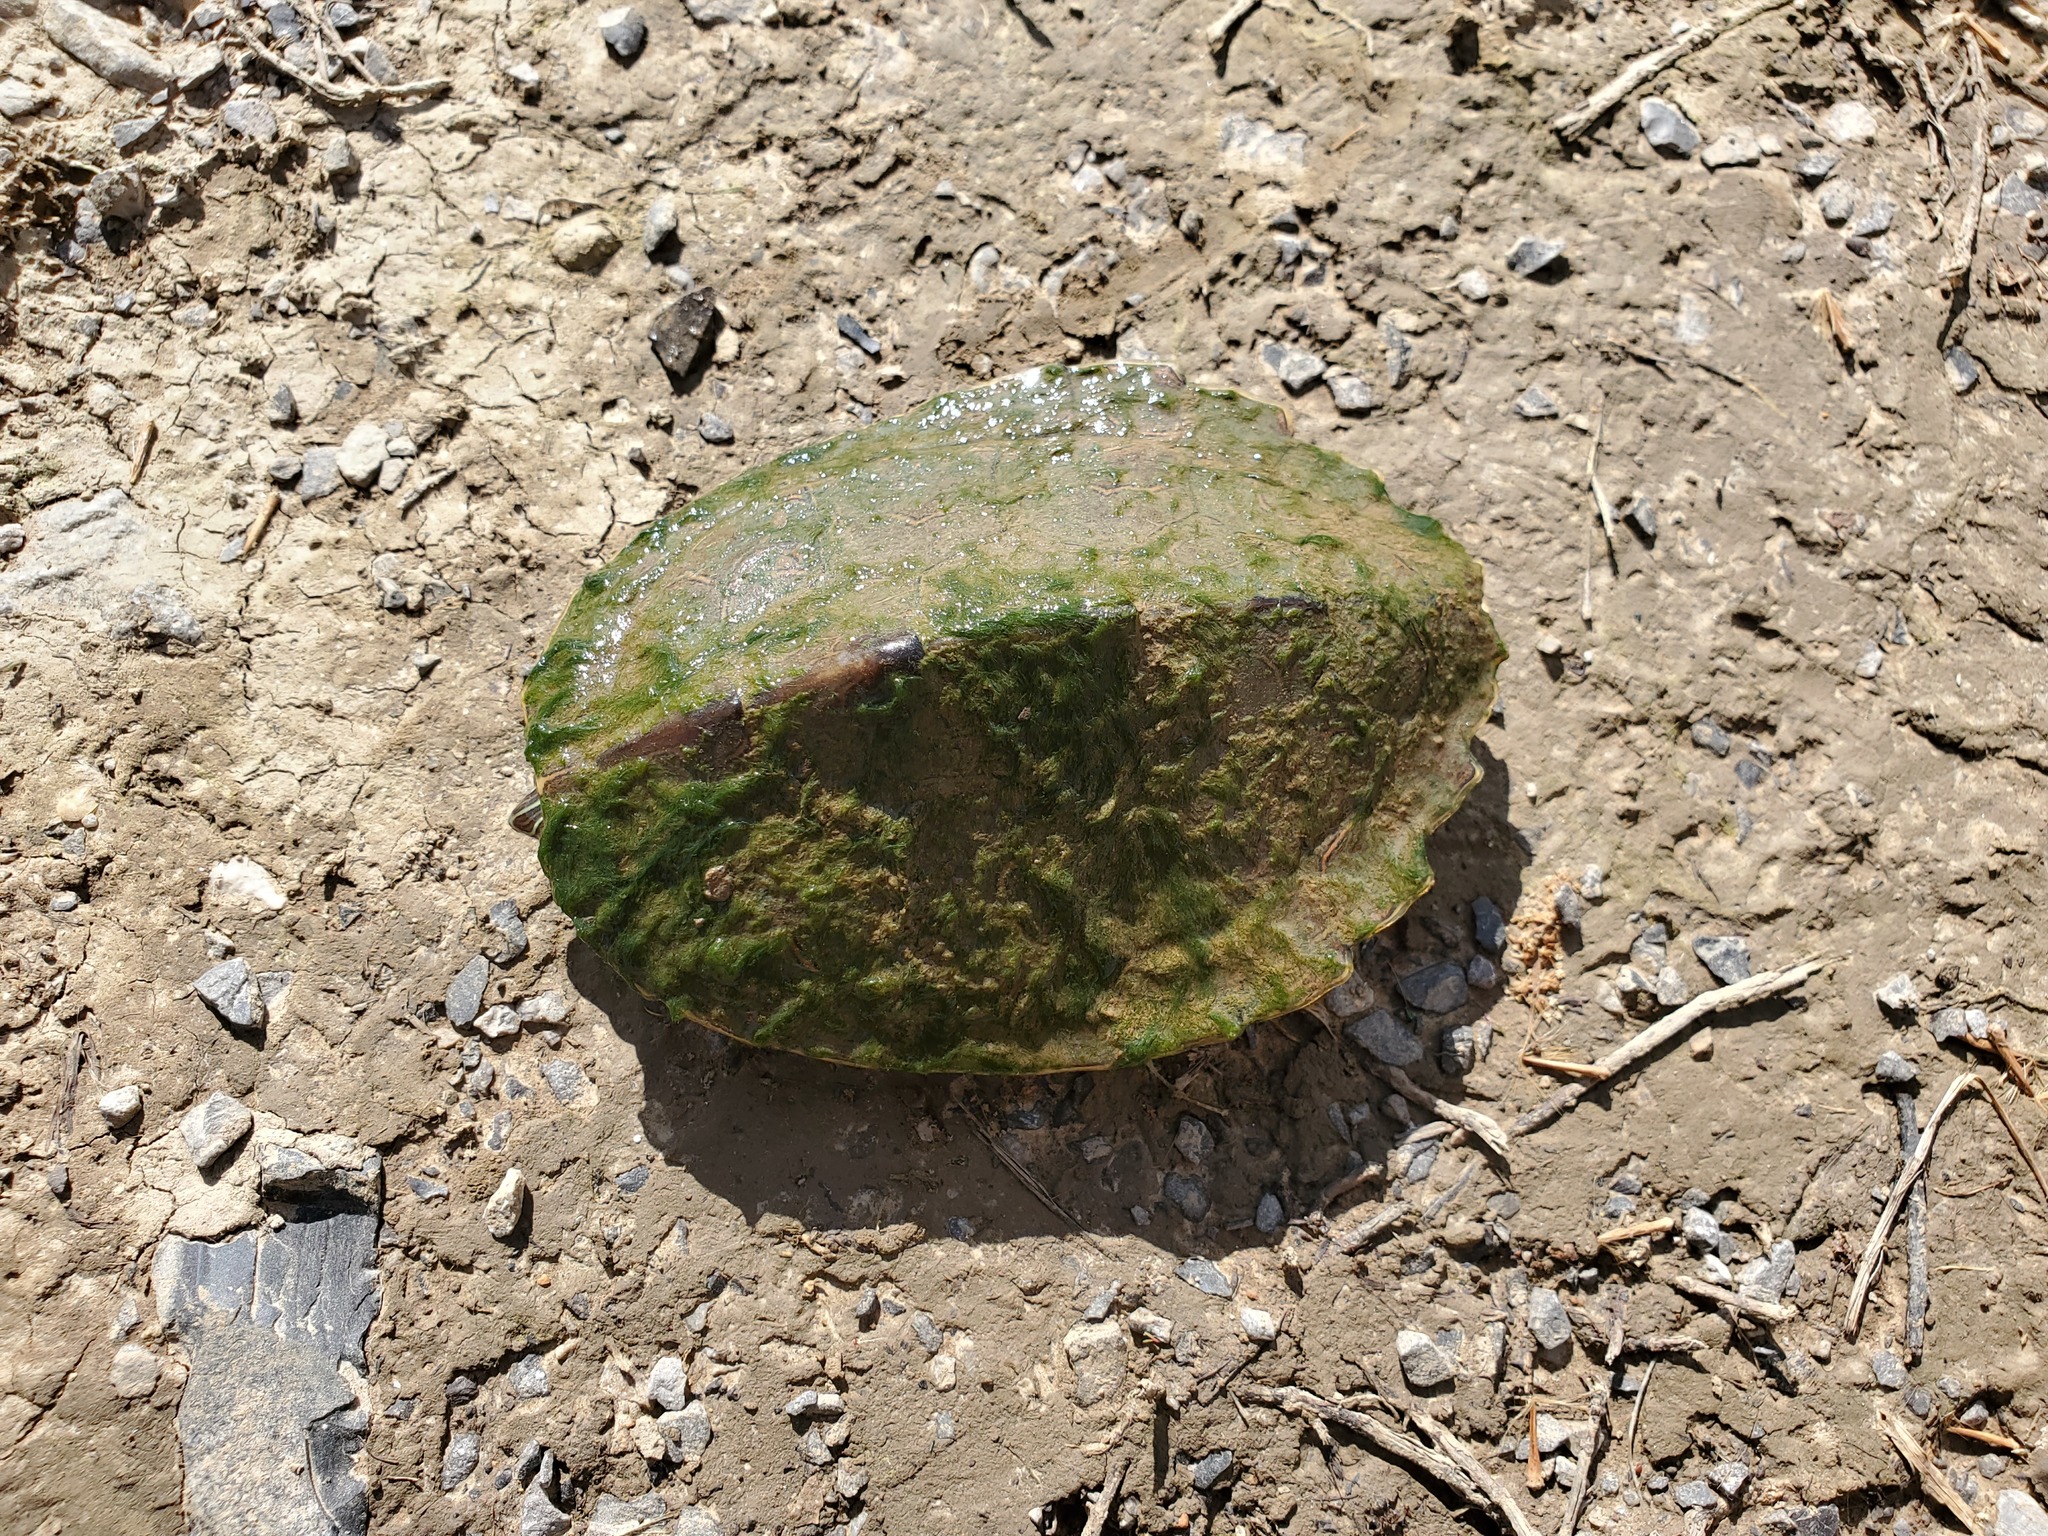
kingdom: Animalia
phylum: Chordata
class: Testudines
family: Emydidae
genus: Graptemys
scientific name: Graptemys ouachitensis
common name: Ouachita map turtle
